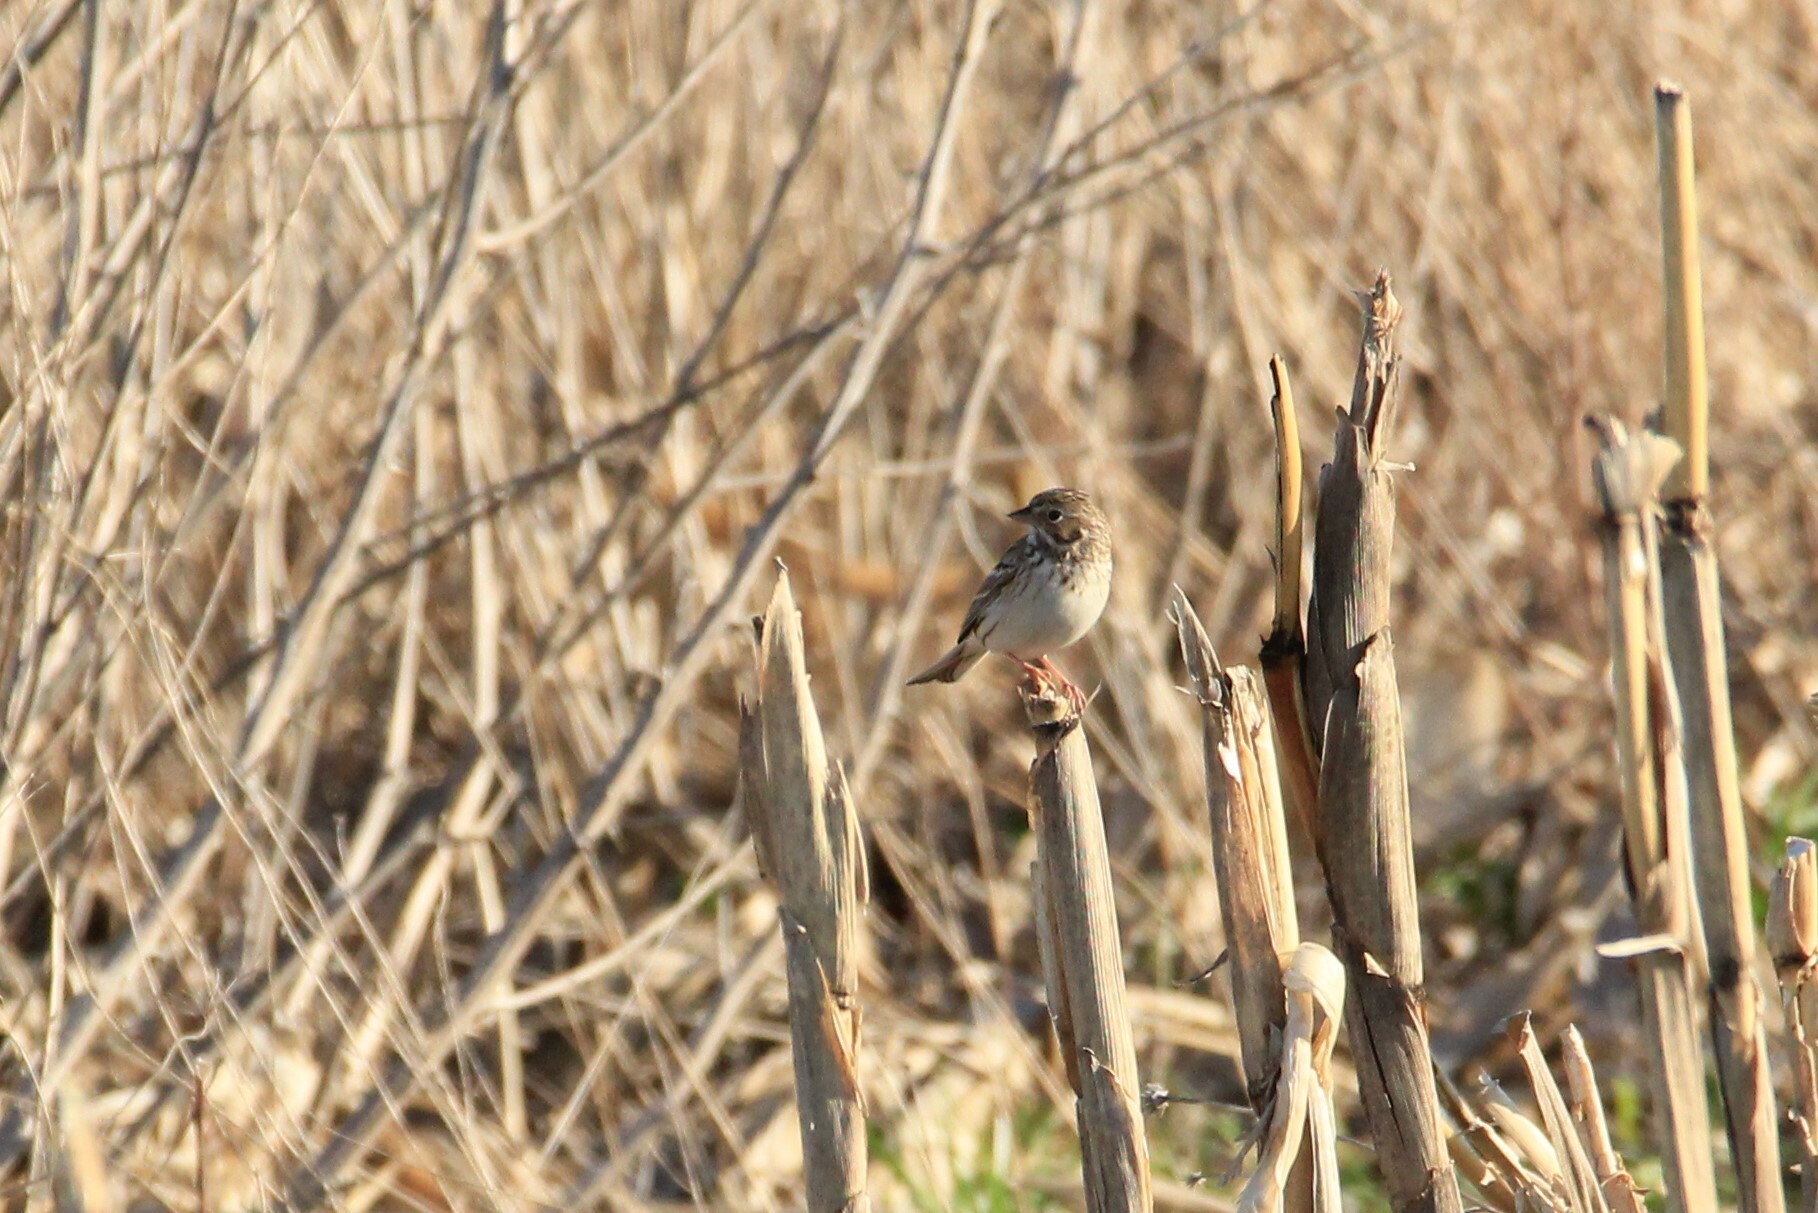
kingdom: Animalia
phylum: Chordata
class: Aves
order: Passeriformes
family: Passerellidae
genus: Pooecetes
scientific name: Pooecetes gramineus
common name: Vesper sparrow
